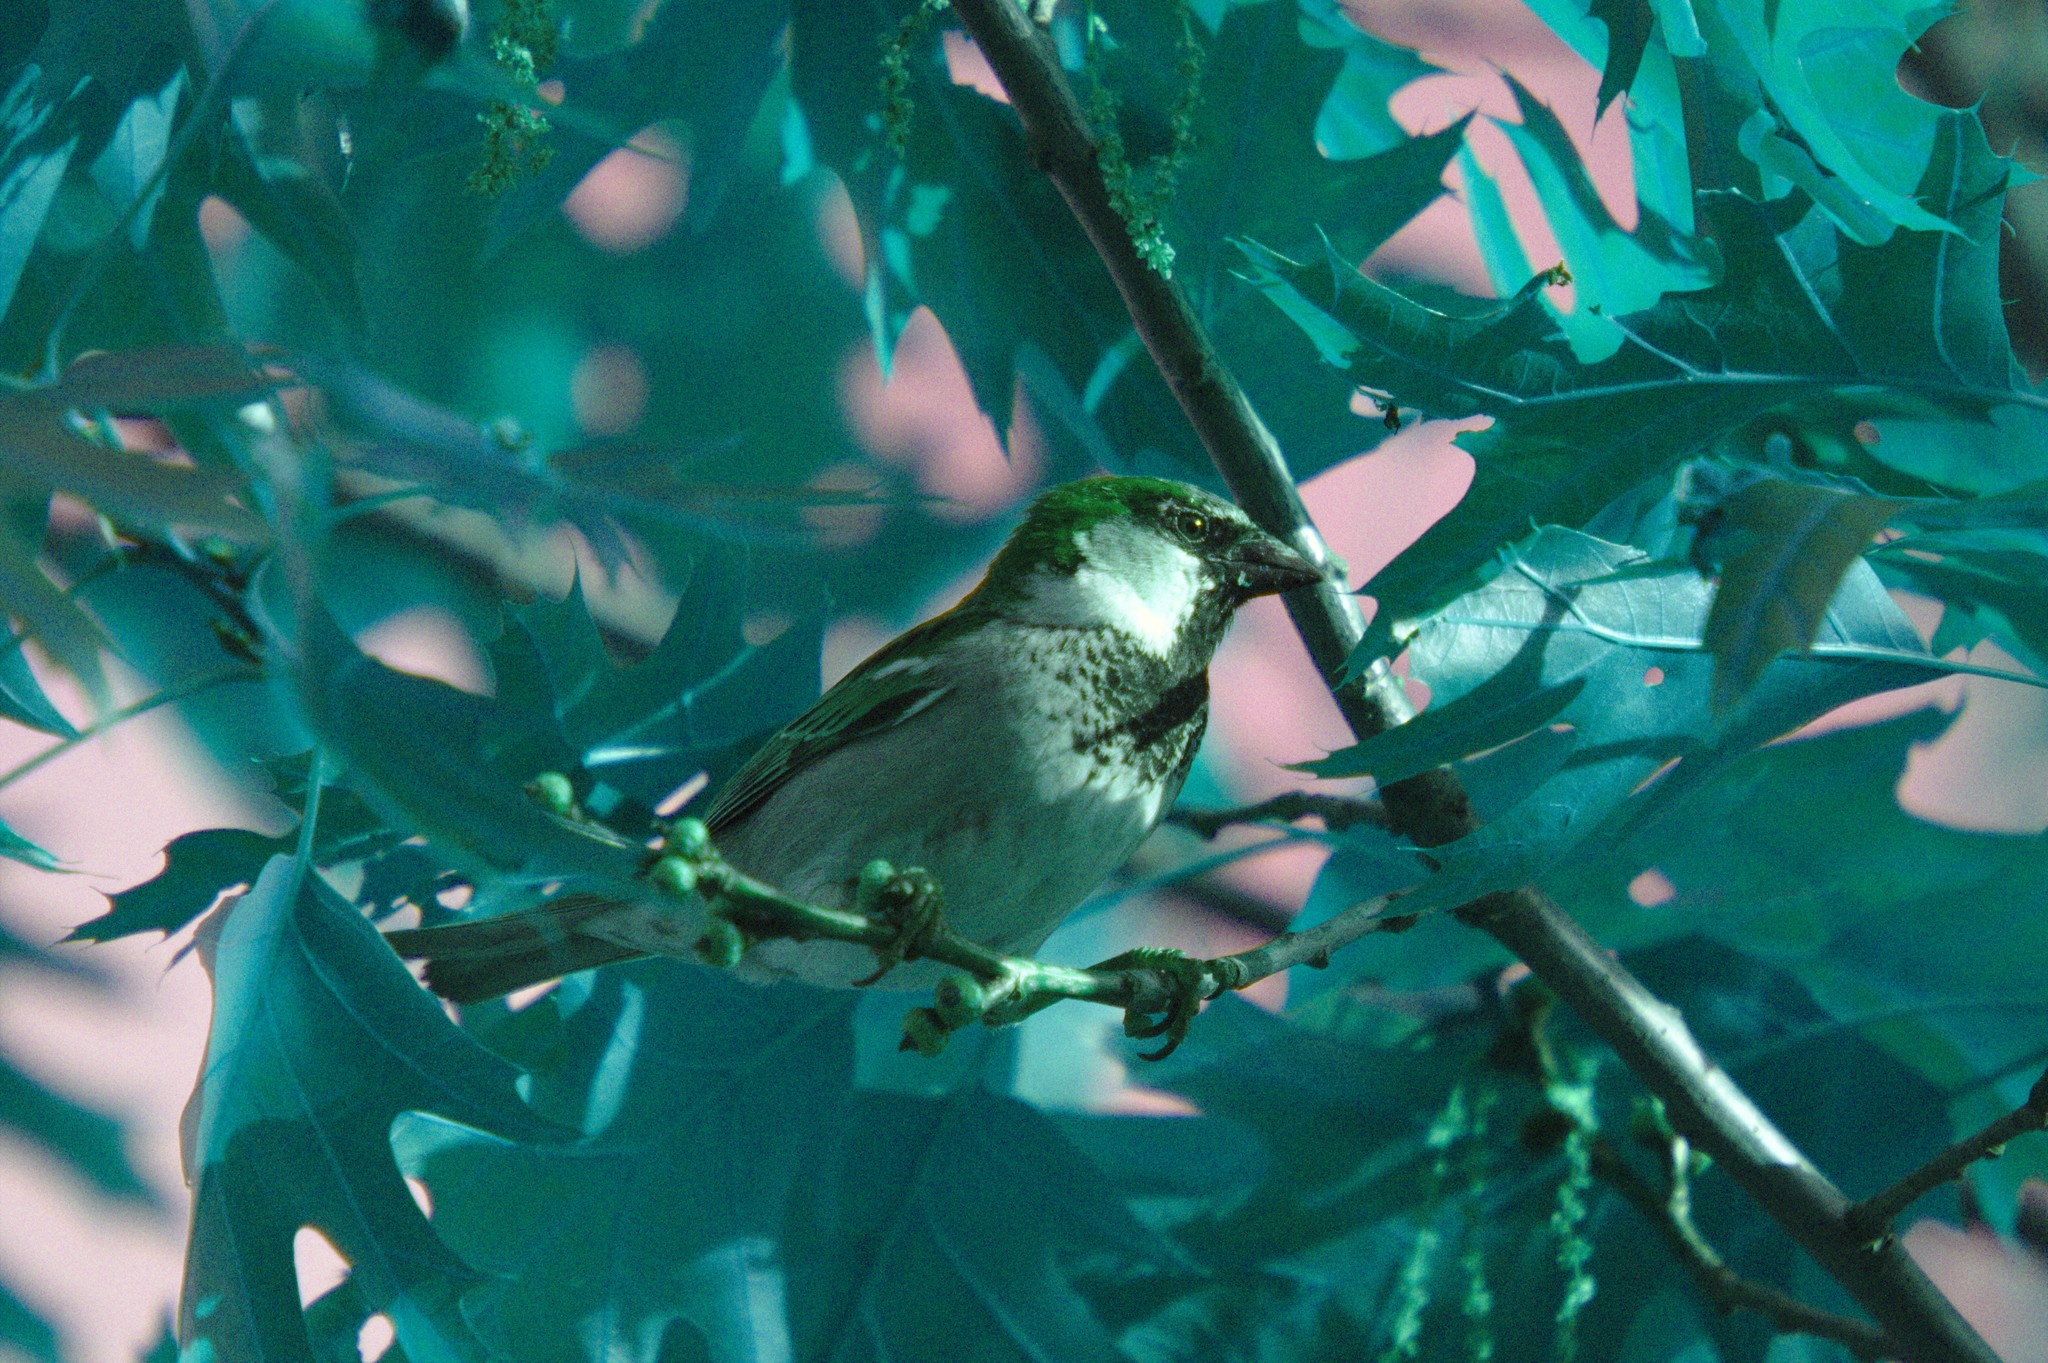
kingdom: Animalia
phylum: Chordata
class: Aves
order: Passeriformes
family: Passeridae
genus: Passer
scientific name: Passer domesticus
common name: House sparrow
